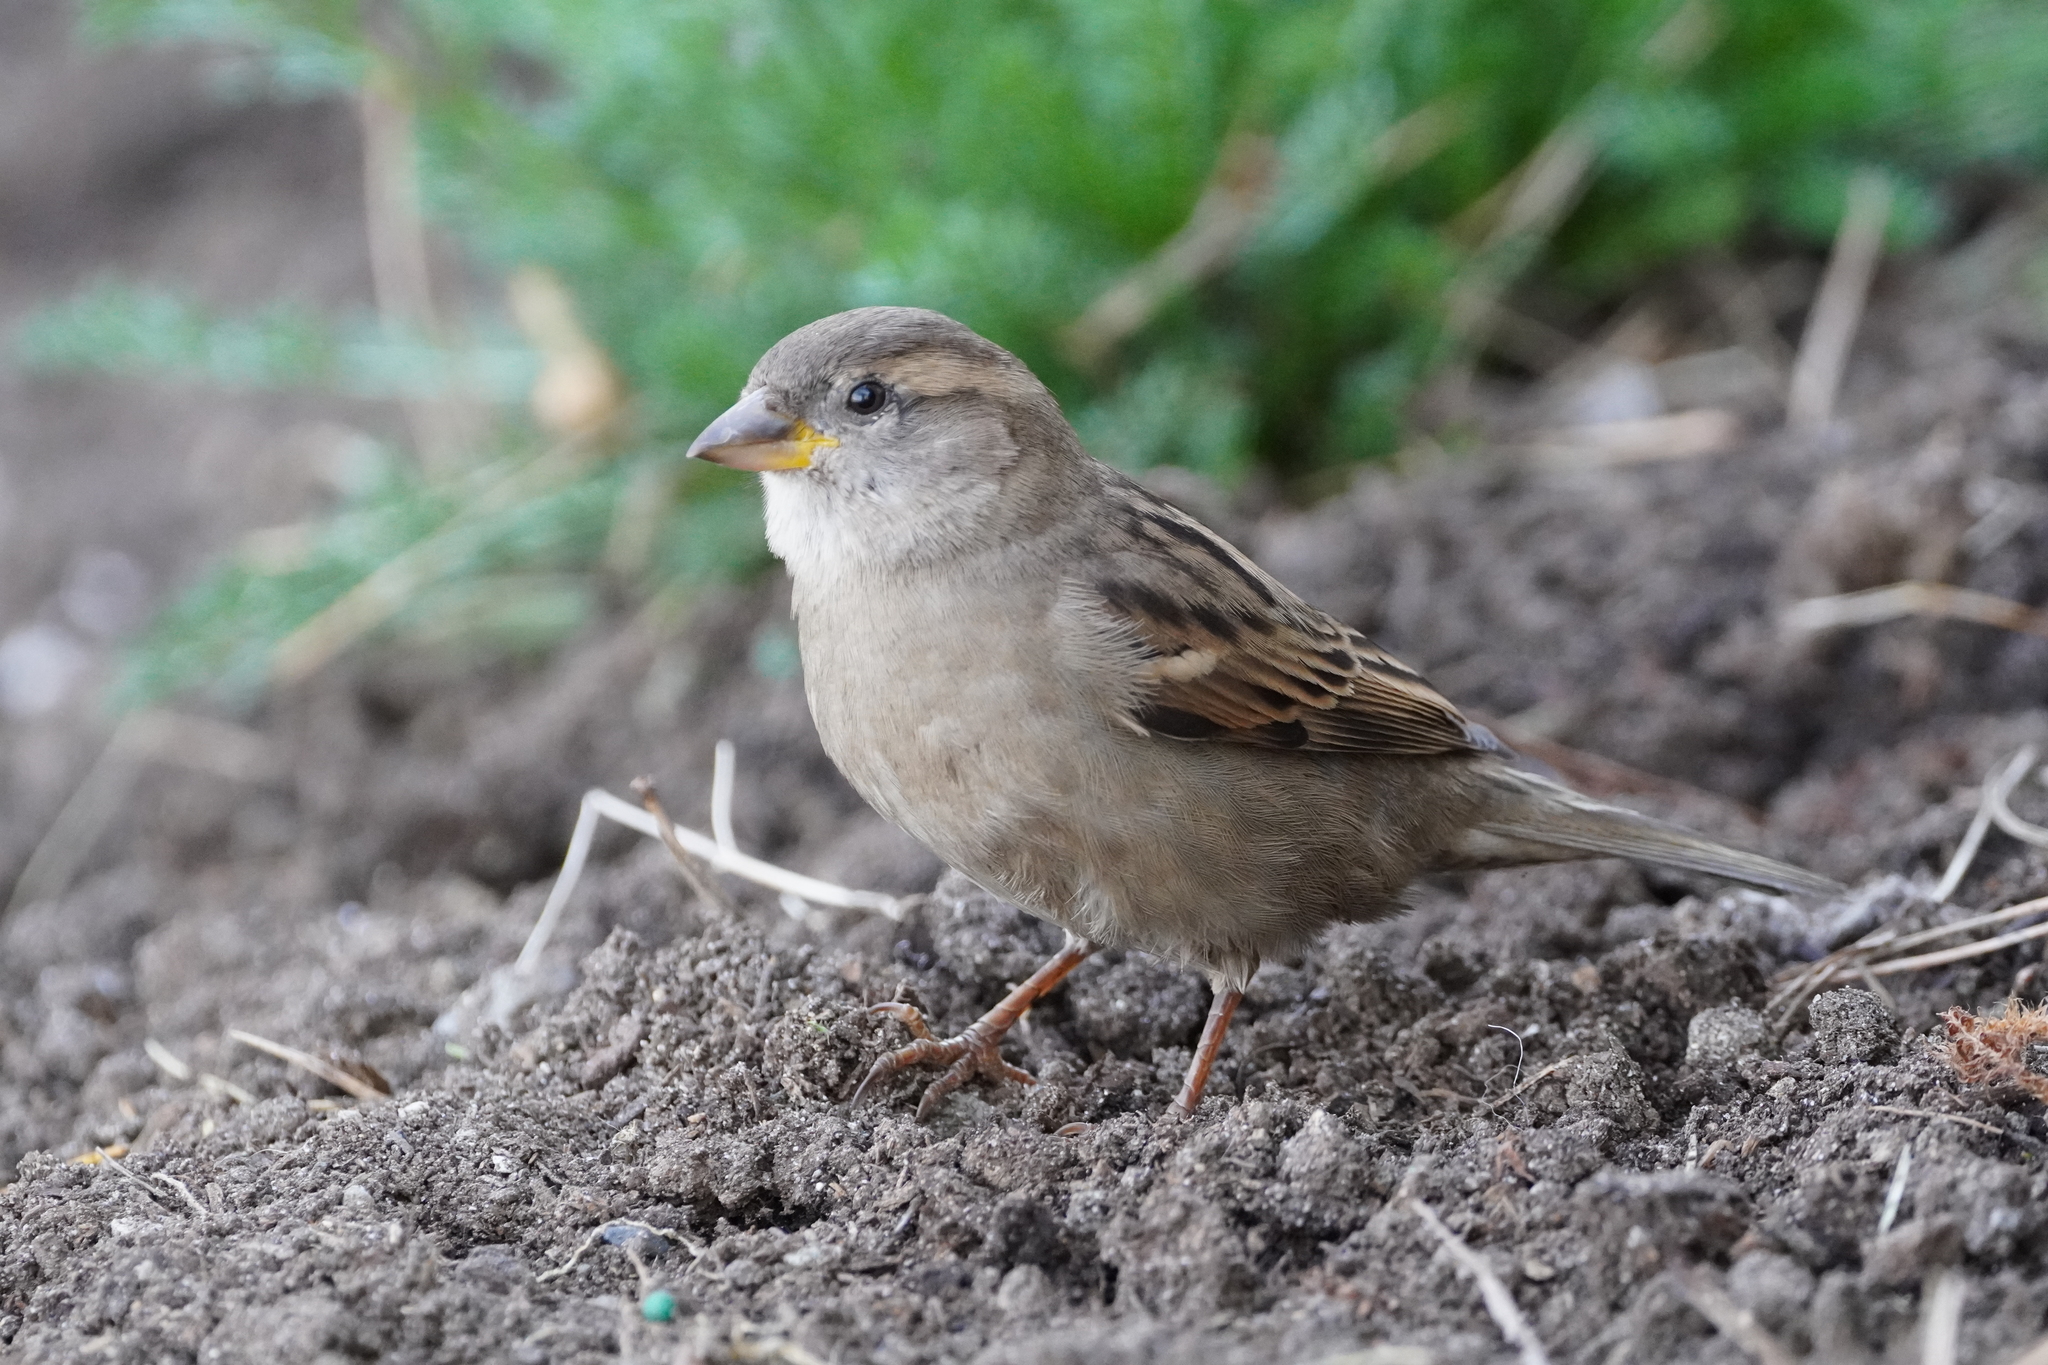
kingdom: Animalia
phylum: Chordata
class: Aves
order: Passeriformes
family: Passeridae
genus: Passer
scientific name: Passer domesticus
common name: House sparrow
